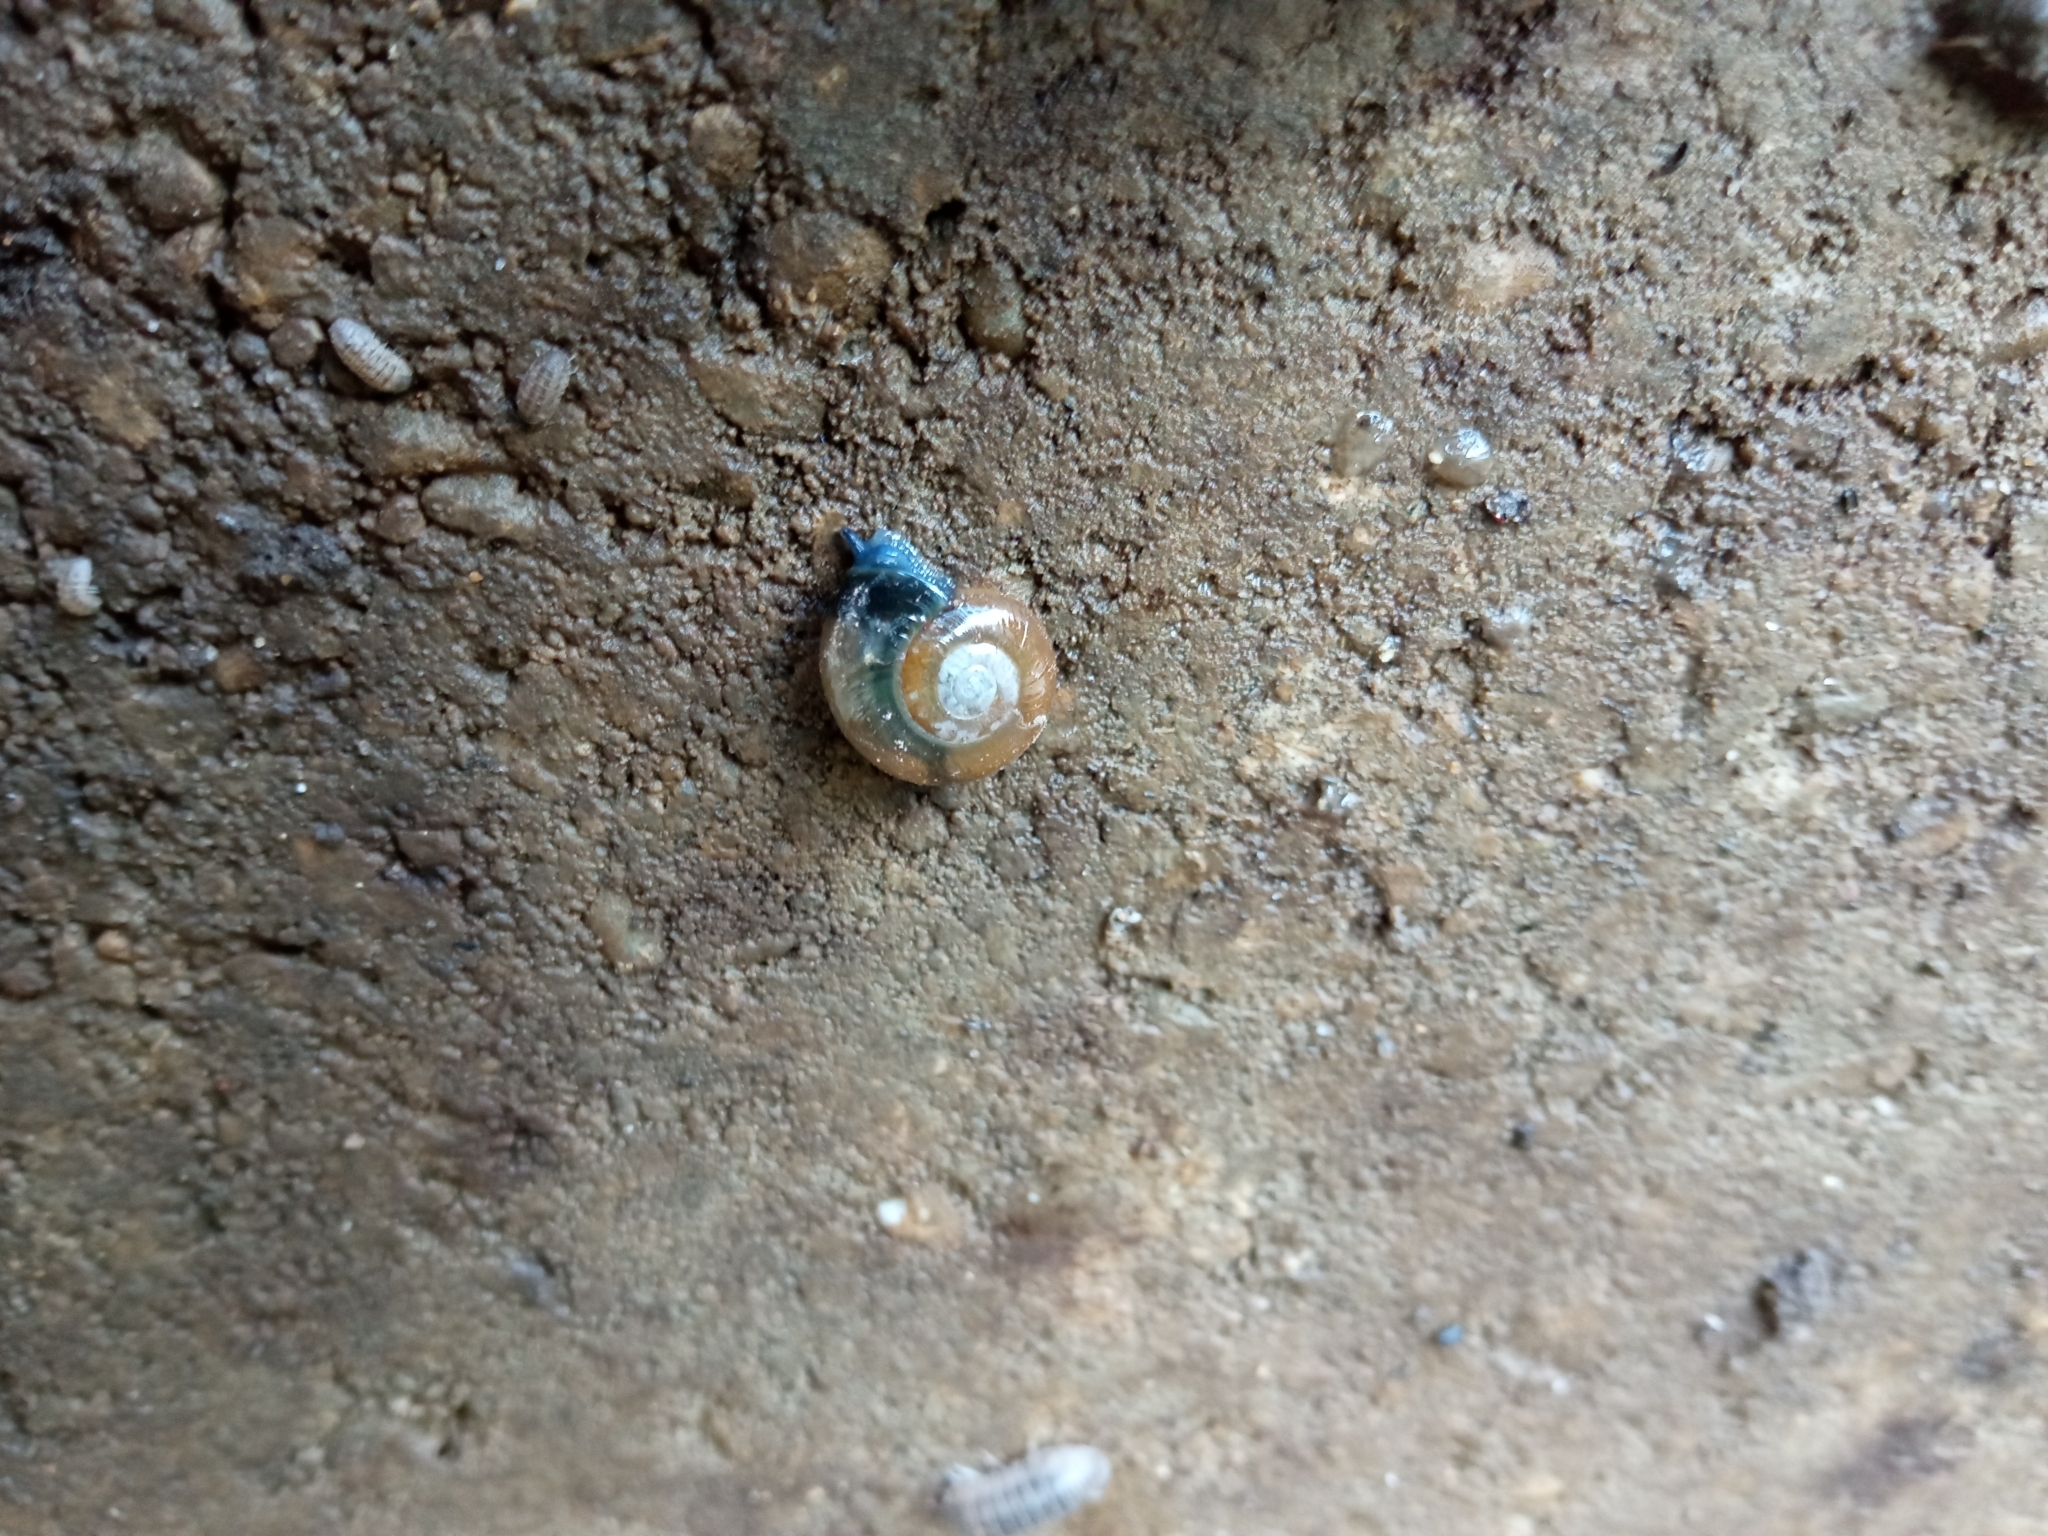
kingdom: Animalia
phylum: Mollusca
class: Gastropoda
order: Stylommatophora
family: Oxychilidae
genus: Oxychilus
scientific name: Oxychilus draparnaudi
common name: Draparnaud's glass snail
